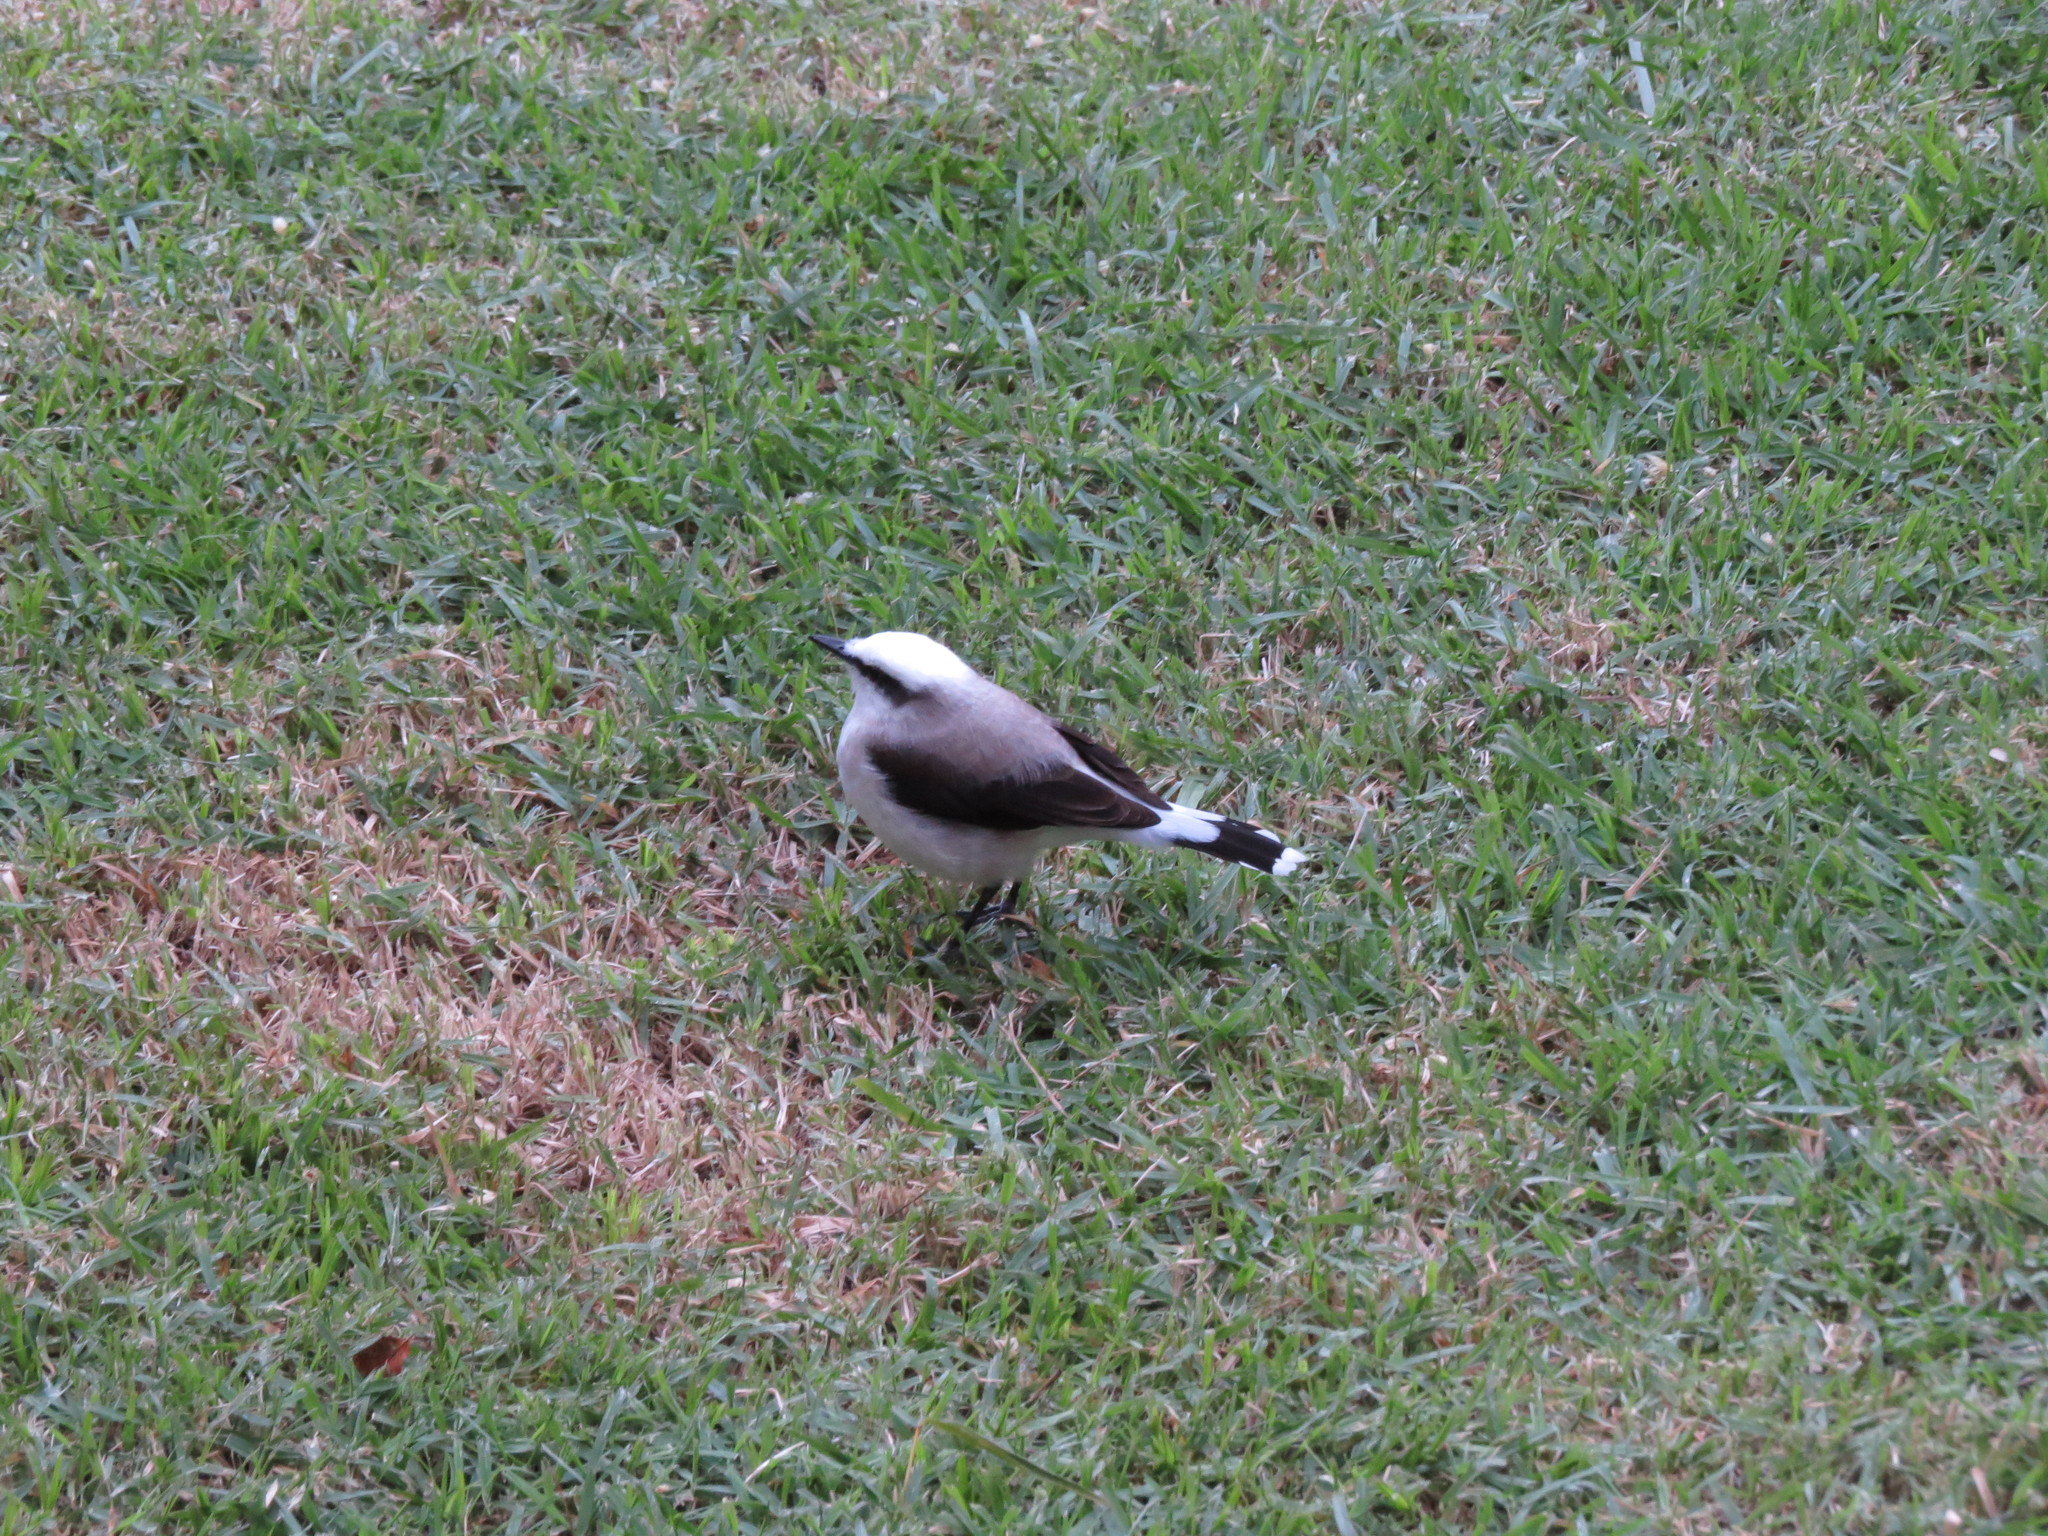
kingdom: Animalia
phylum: Chordata
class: Aves
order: Passeriformes
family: Tyrannidae
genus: Fluvicola
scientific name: Fluvicola nengeta
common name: Masked water tyrant
